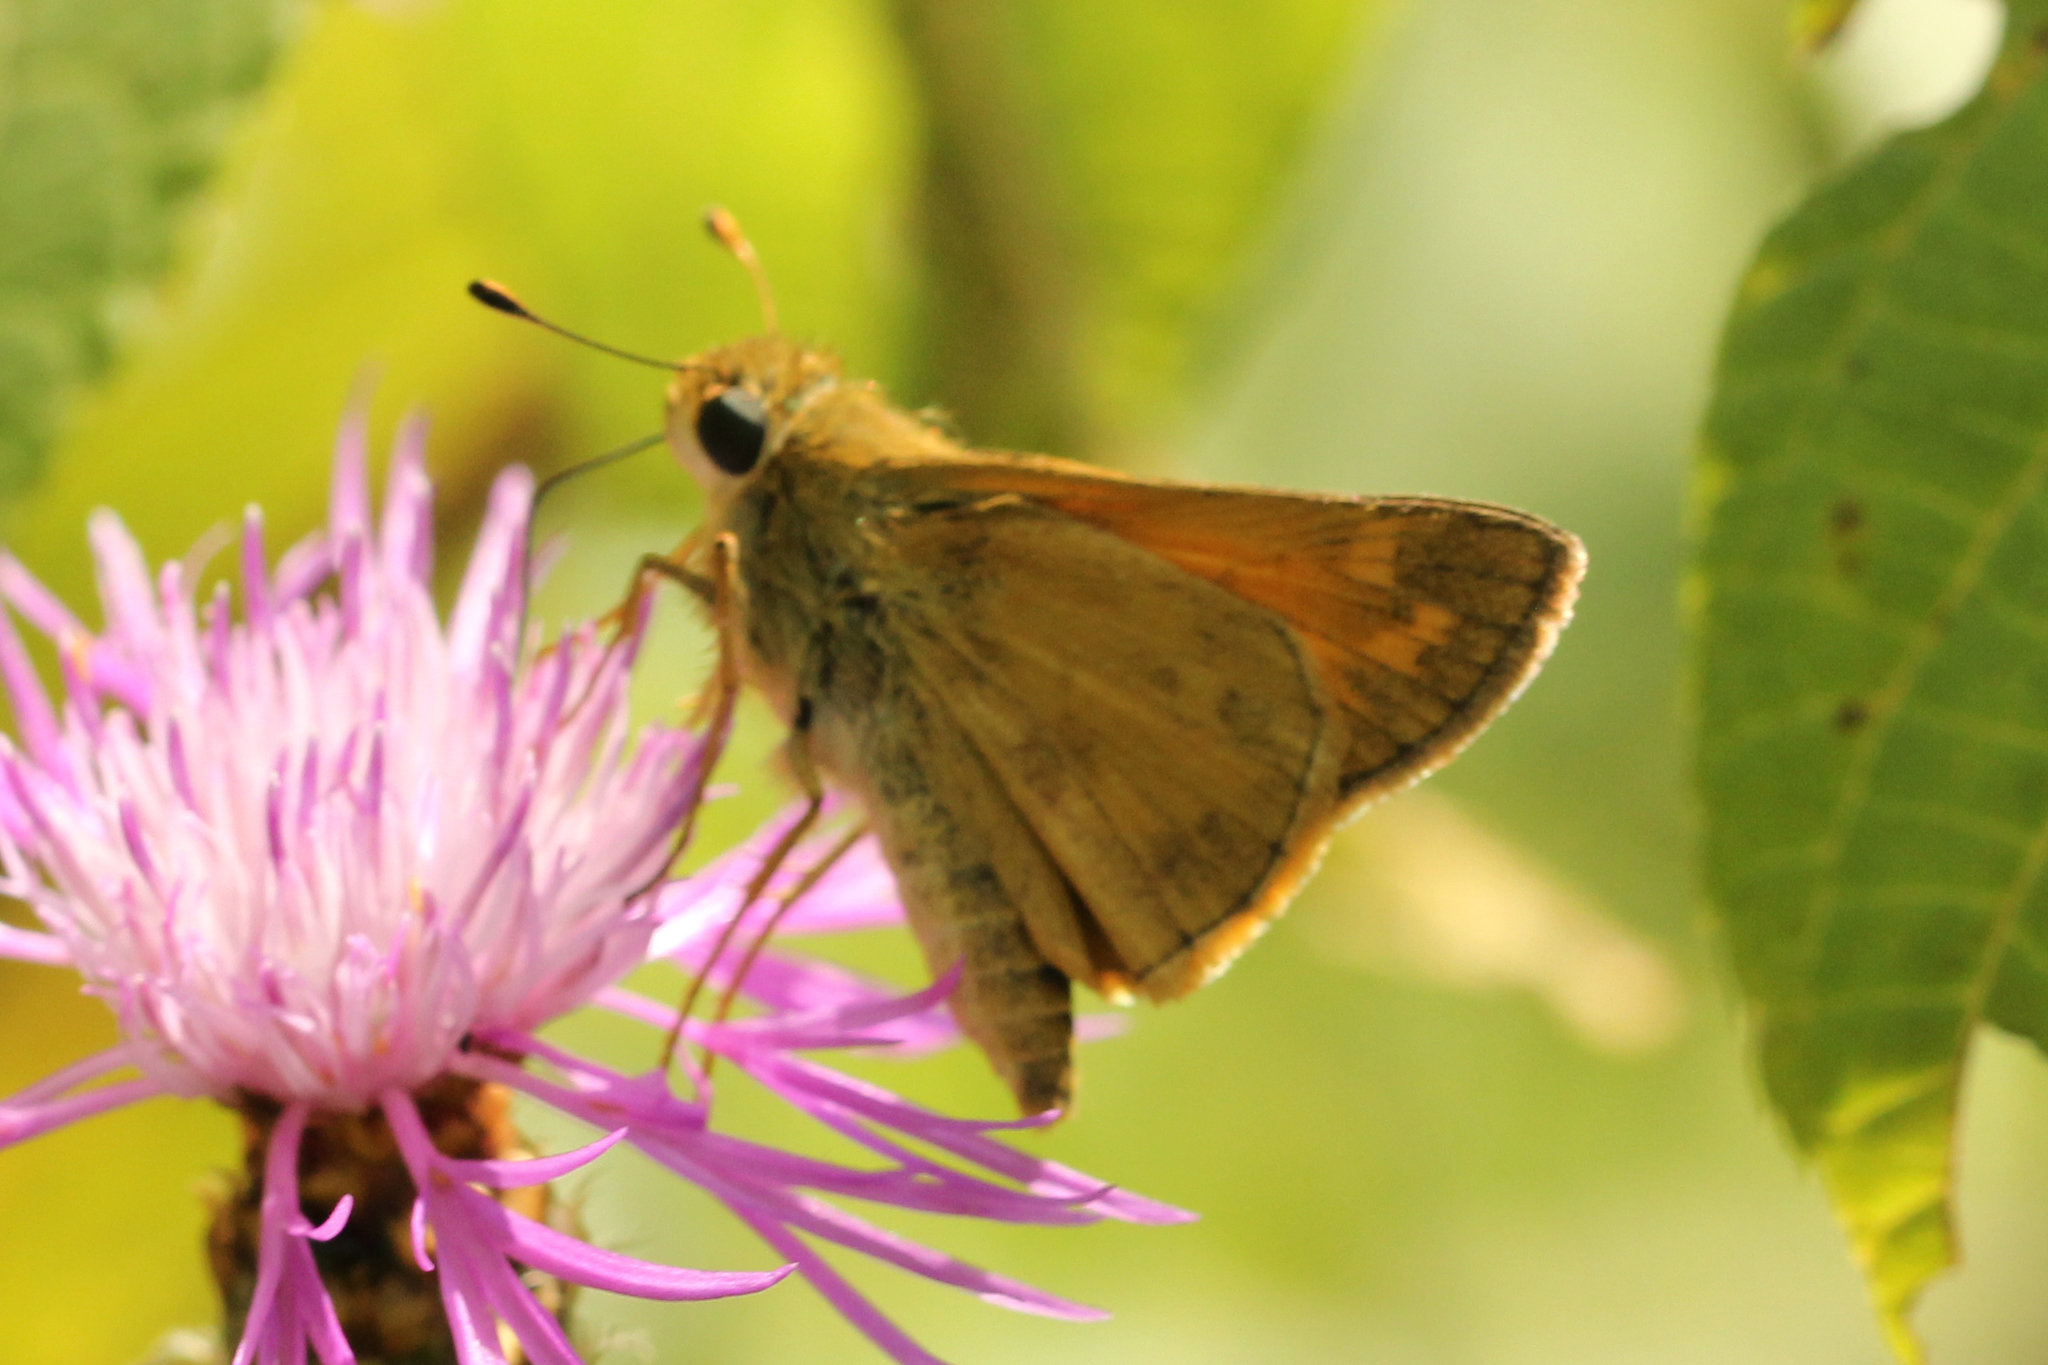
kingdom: Animalia
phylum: Arthropoda
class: Insecta
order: Lepidoptera
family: Hesperiidae
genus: Atalopedes
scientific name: Atalopedes
